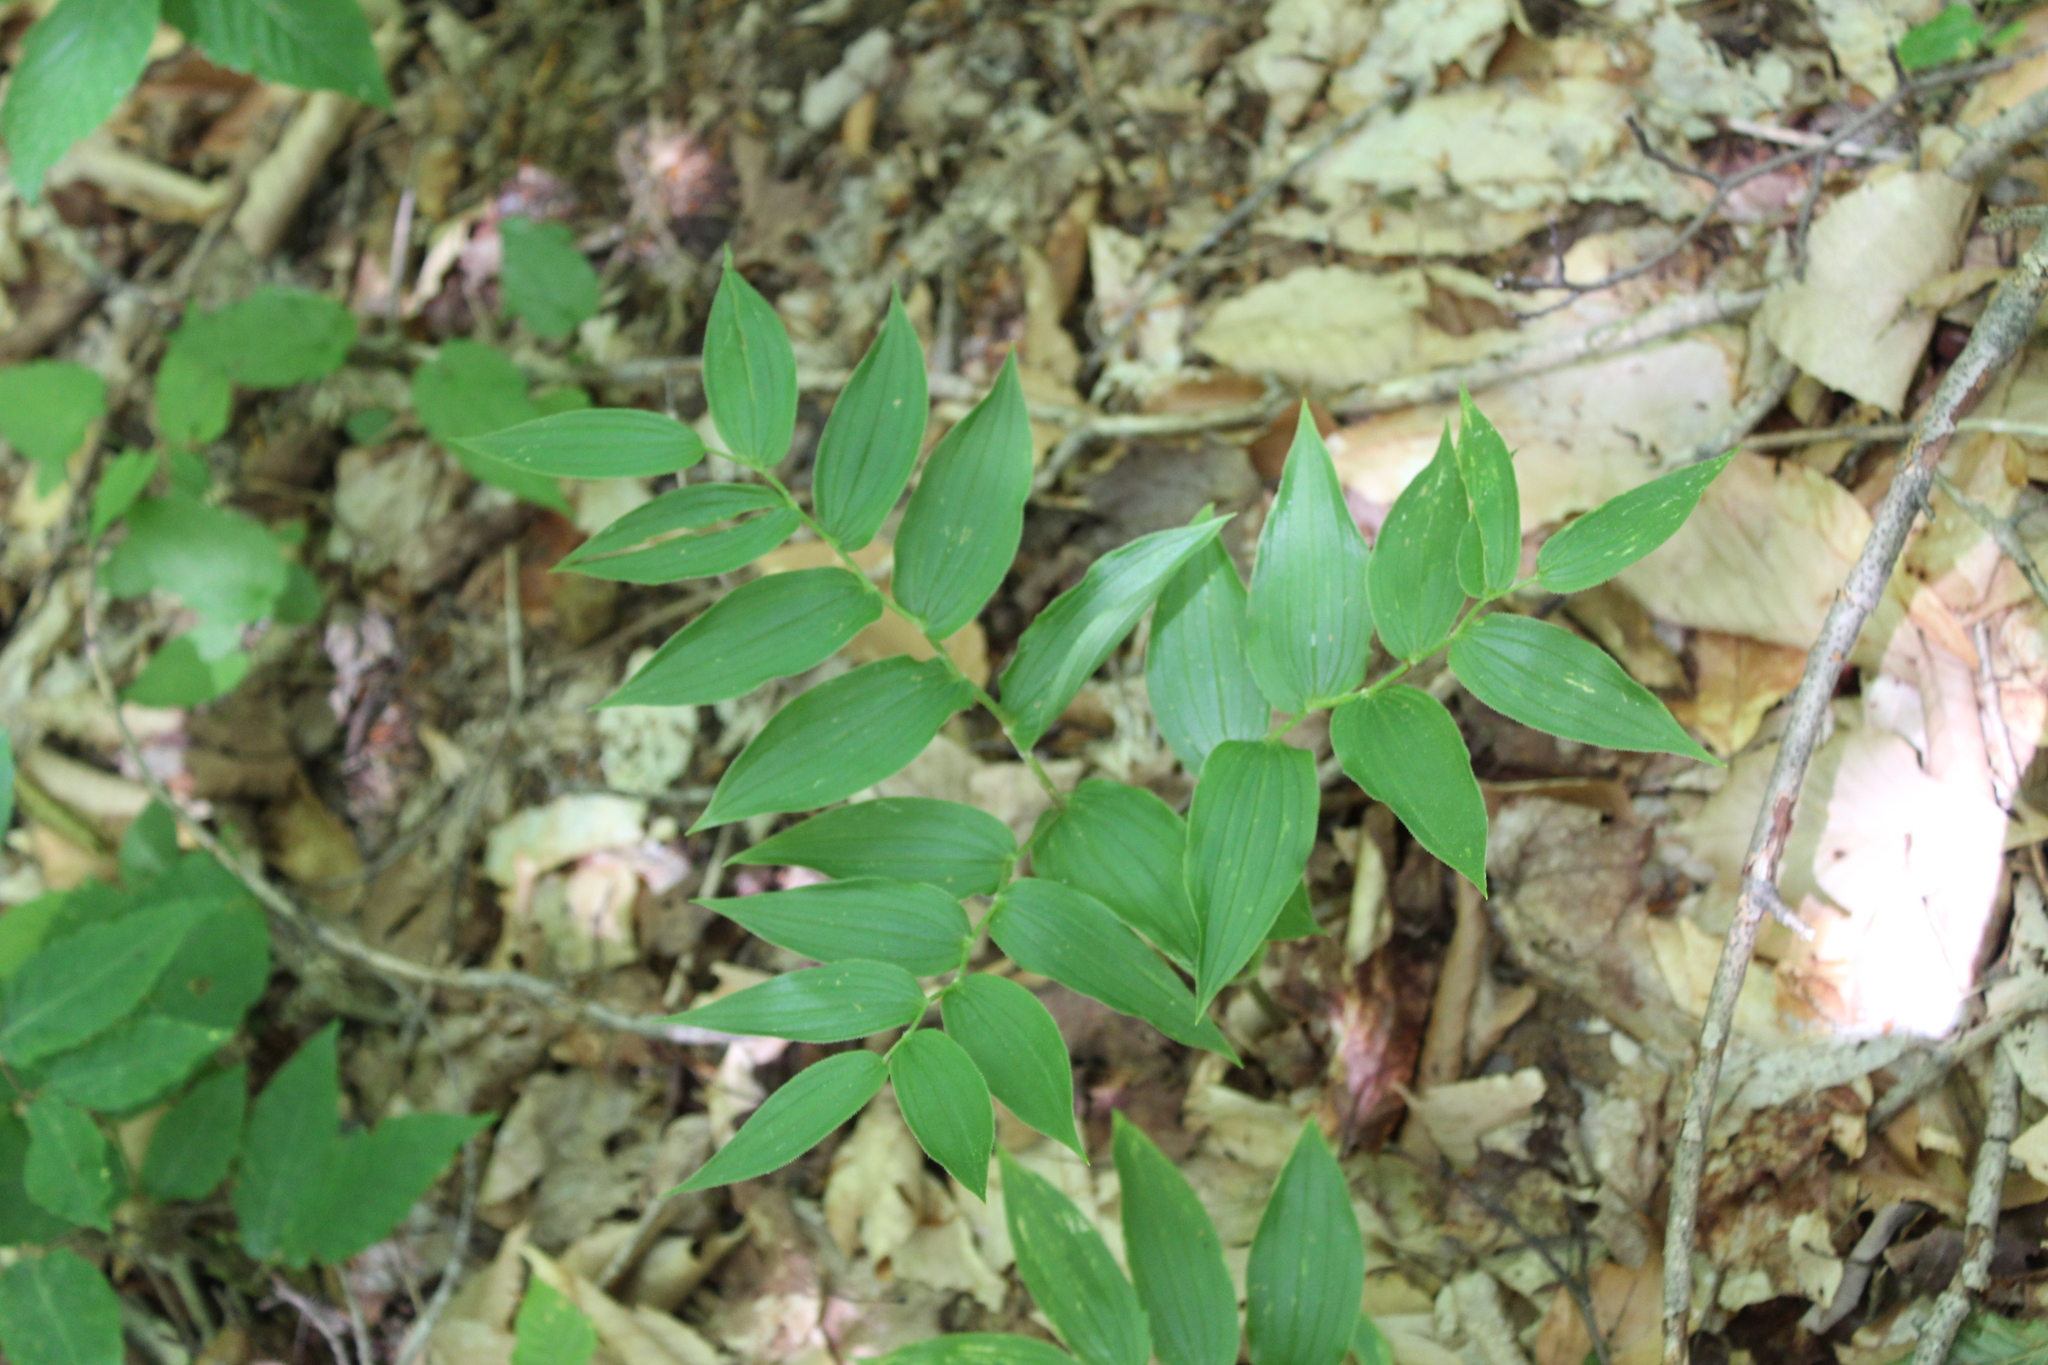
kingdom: Plantae
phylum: Tracheophyta
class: Liliopsida
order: Liliales
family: Liliaceae
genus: Streptopus
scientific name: Streptopus lanceolatus
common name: Rose mandarin
